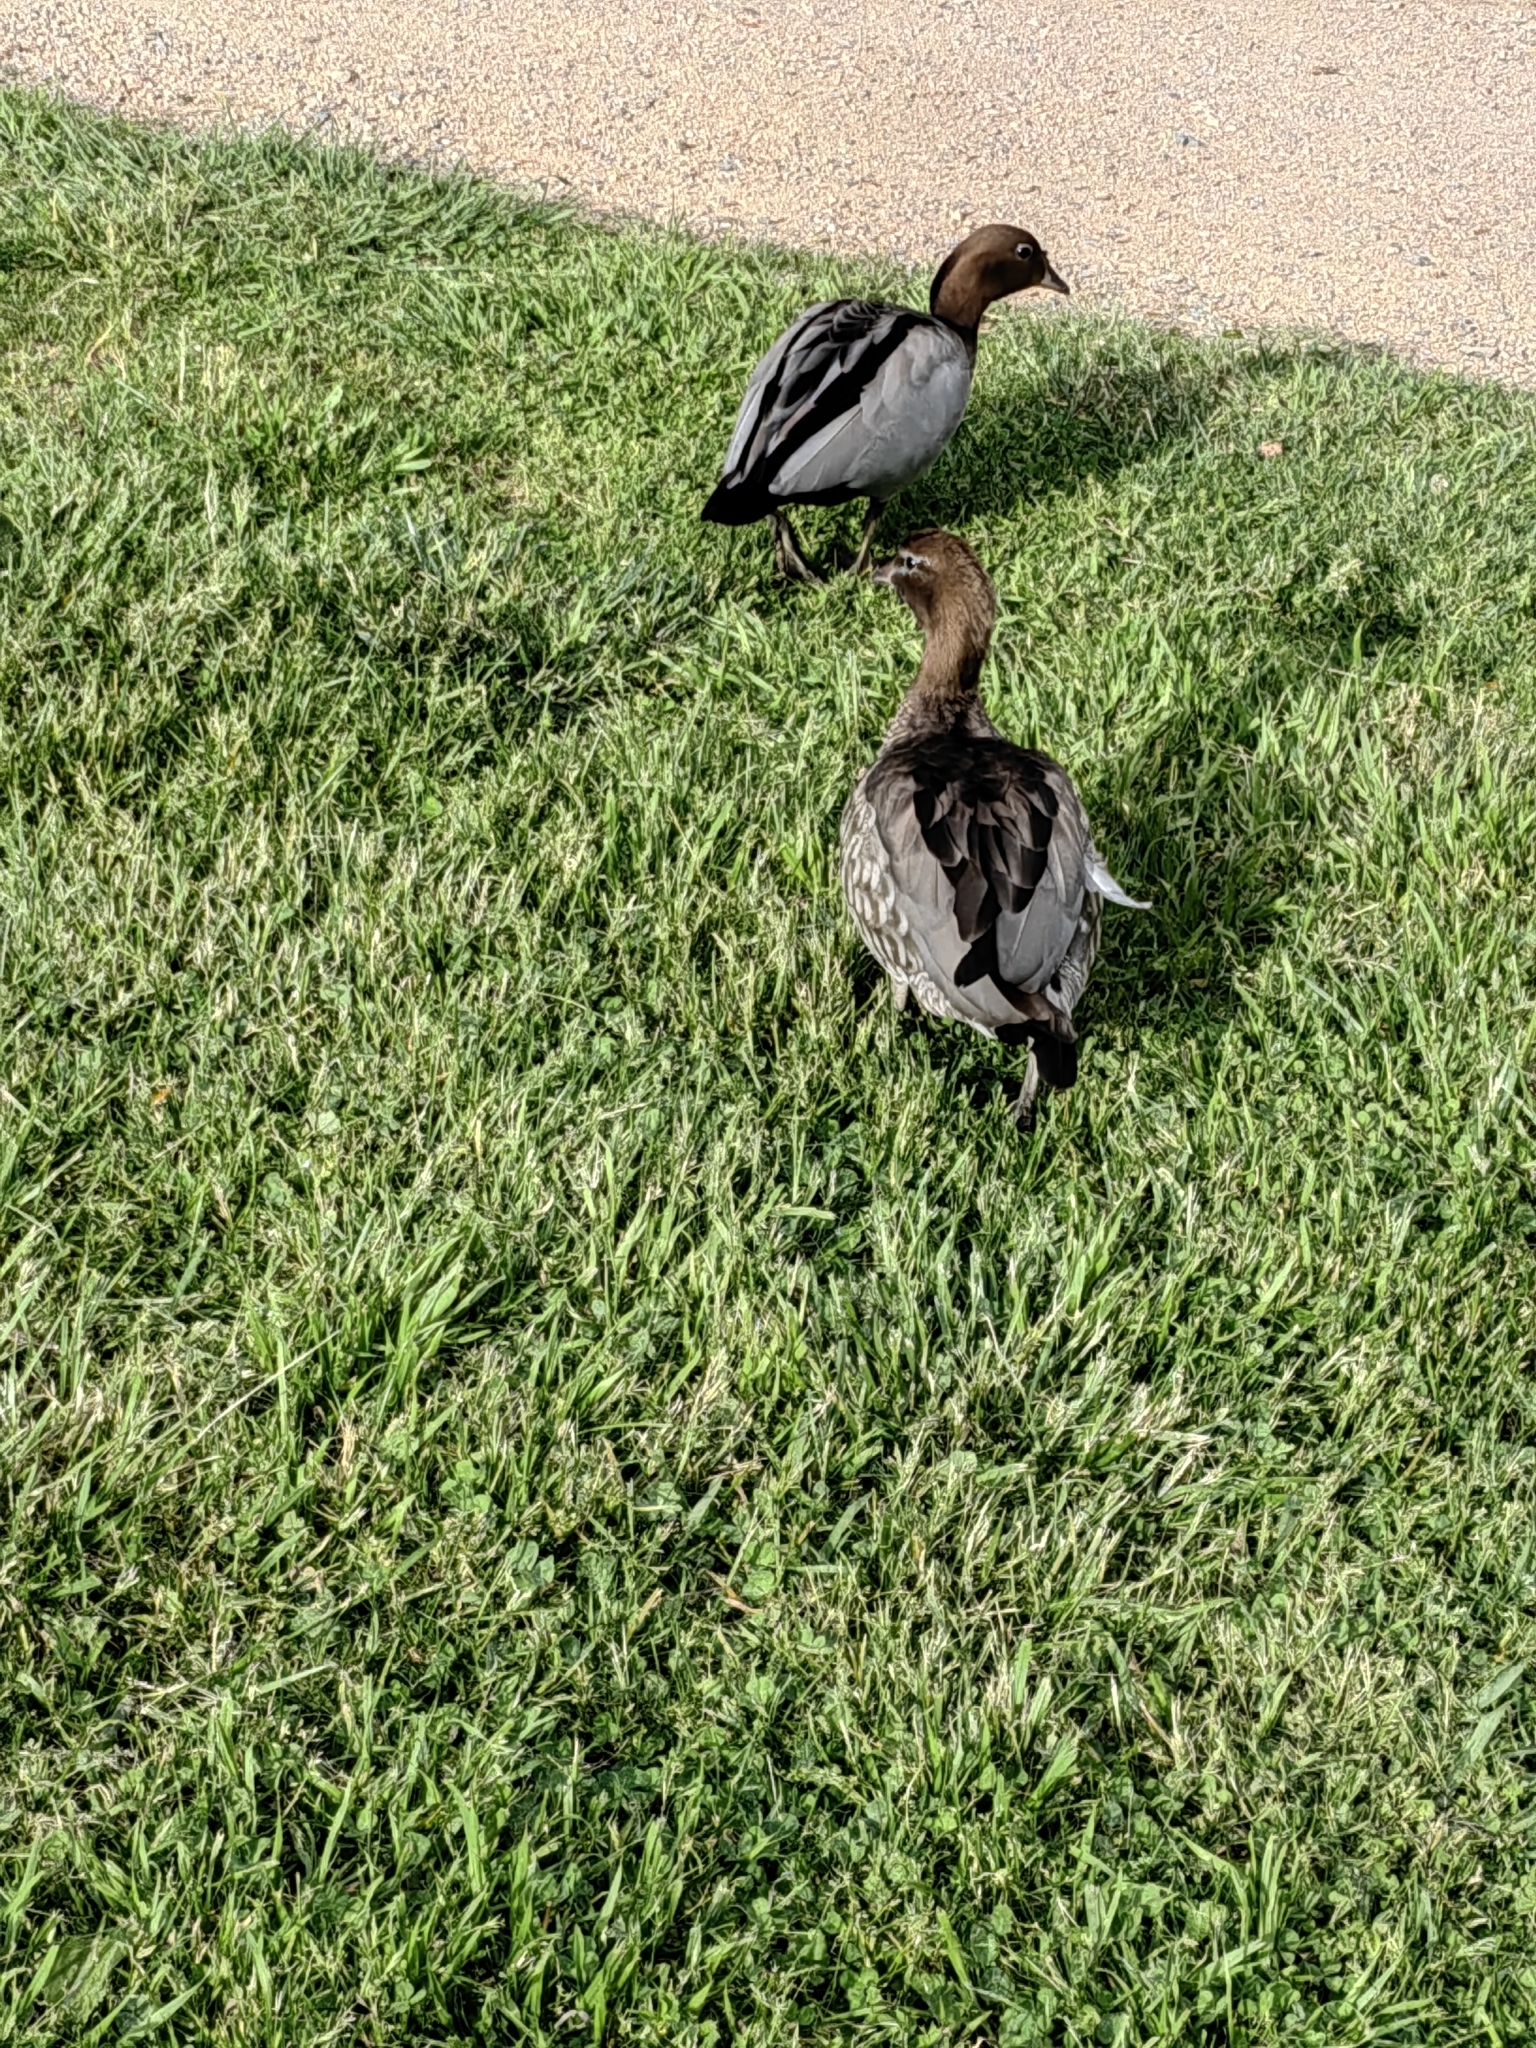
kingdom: Animalia
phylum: Chordata
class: Aves
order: Anseriformes
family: Anatidae
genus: Chenonetta
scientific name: Chenonetta jubata
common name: Maned duck
